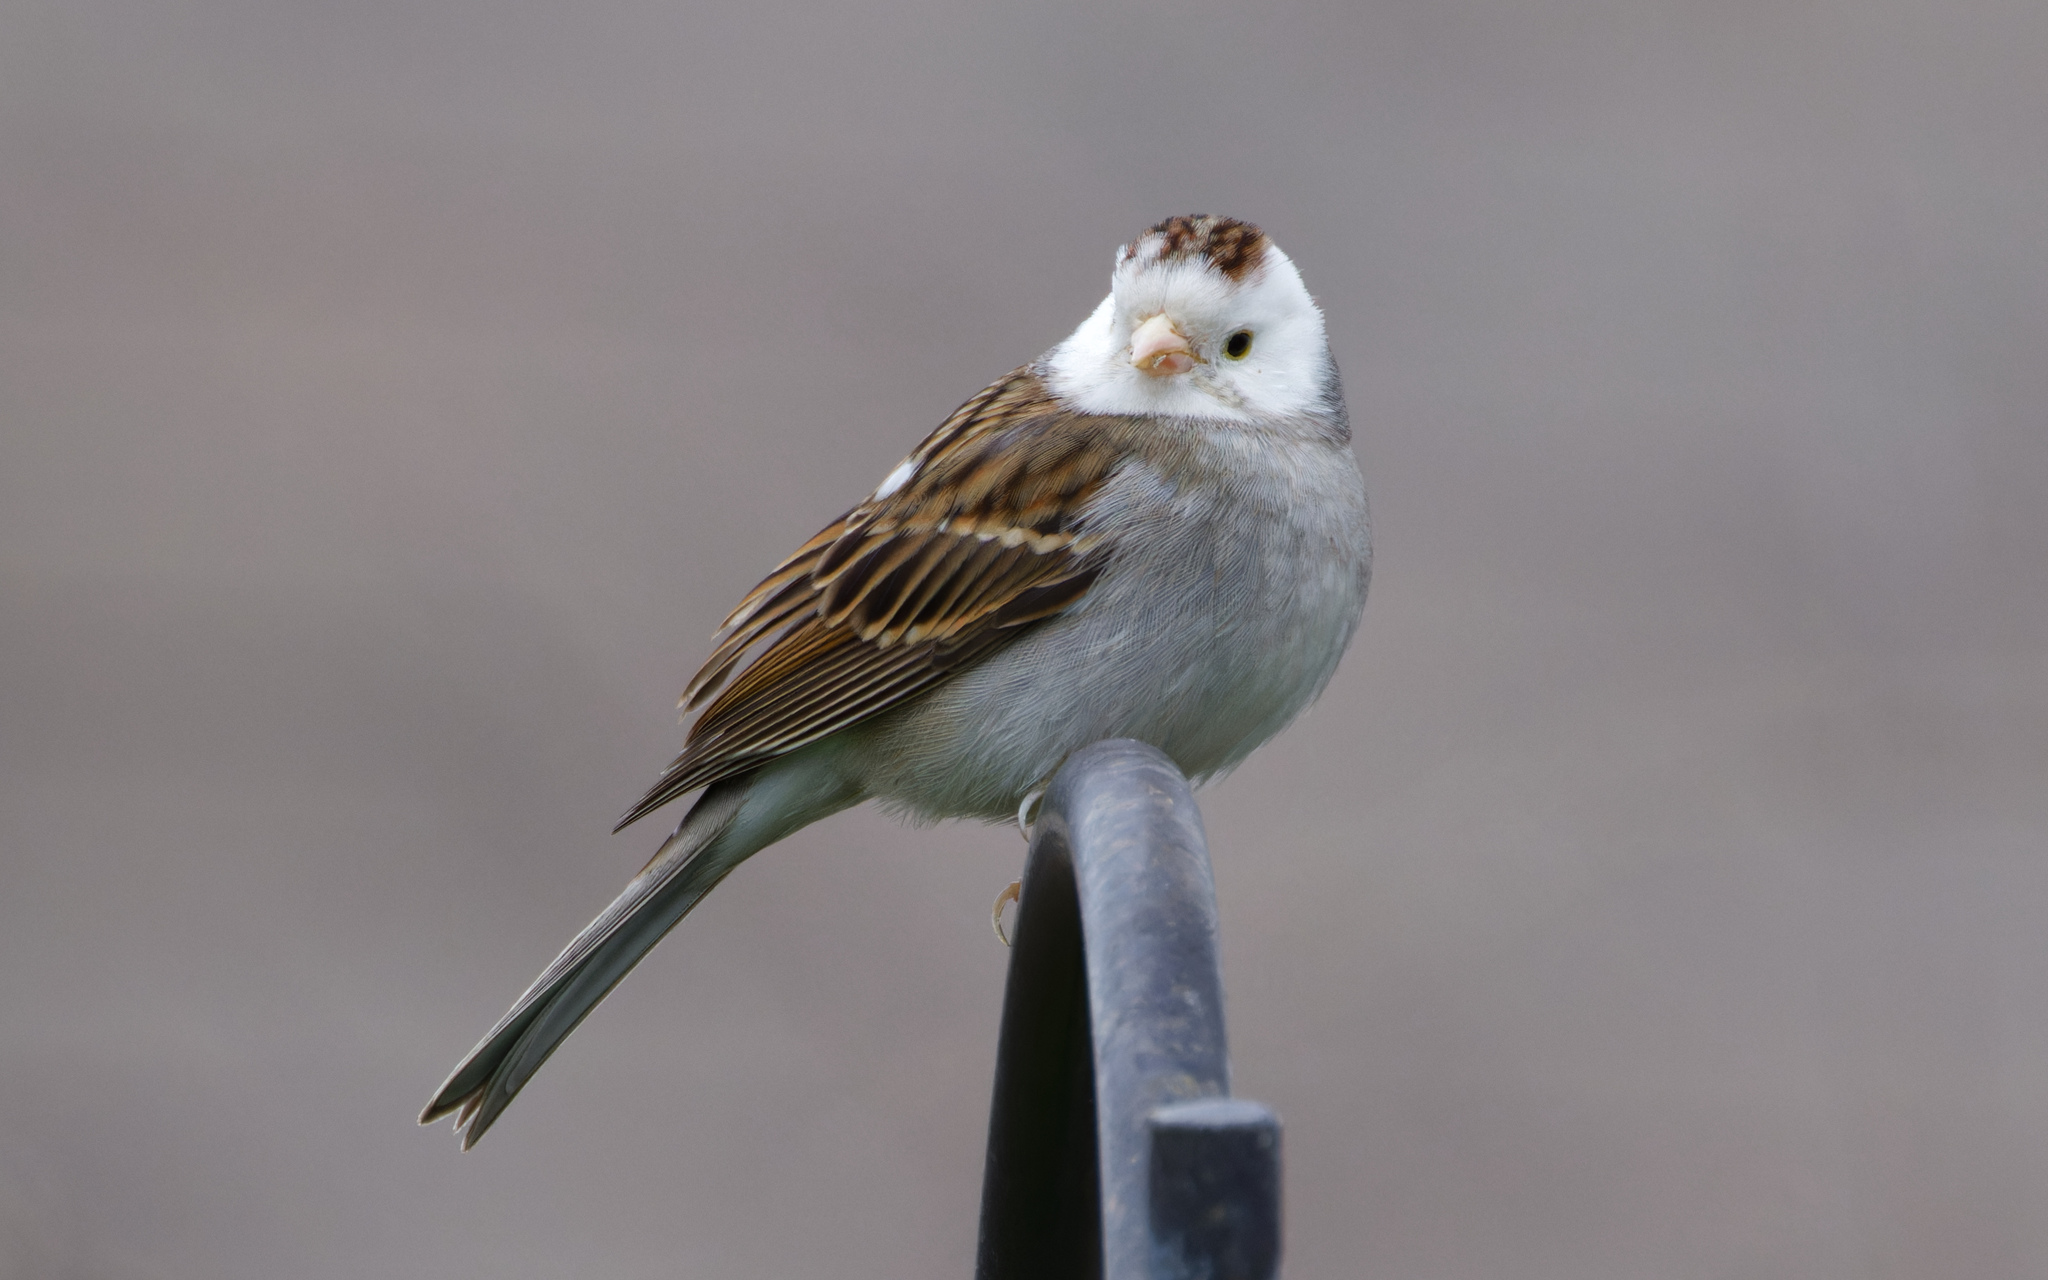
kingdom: Animalia
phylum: Chordata
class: Aves
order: Passeriformes
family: Passerellidae
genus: Spizella
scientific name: Spizella passerina
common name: Chipping sparrow
